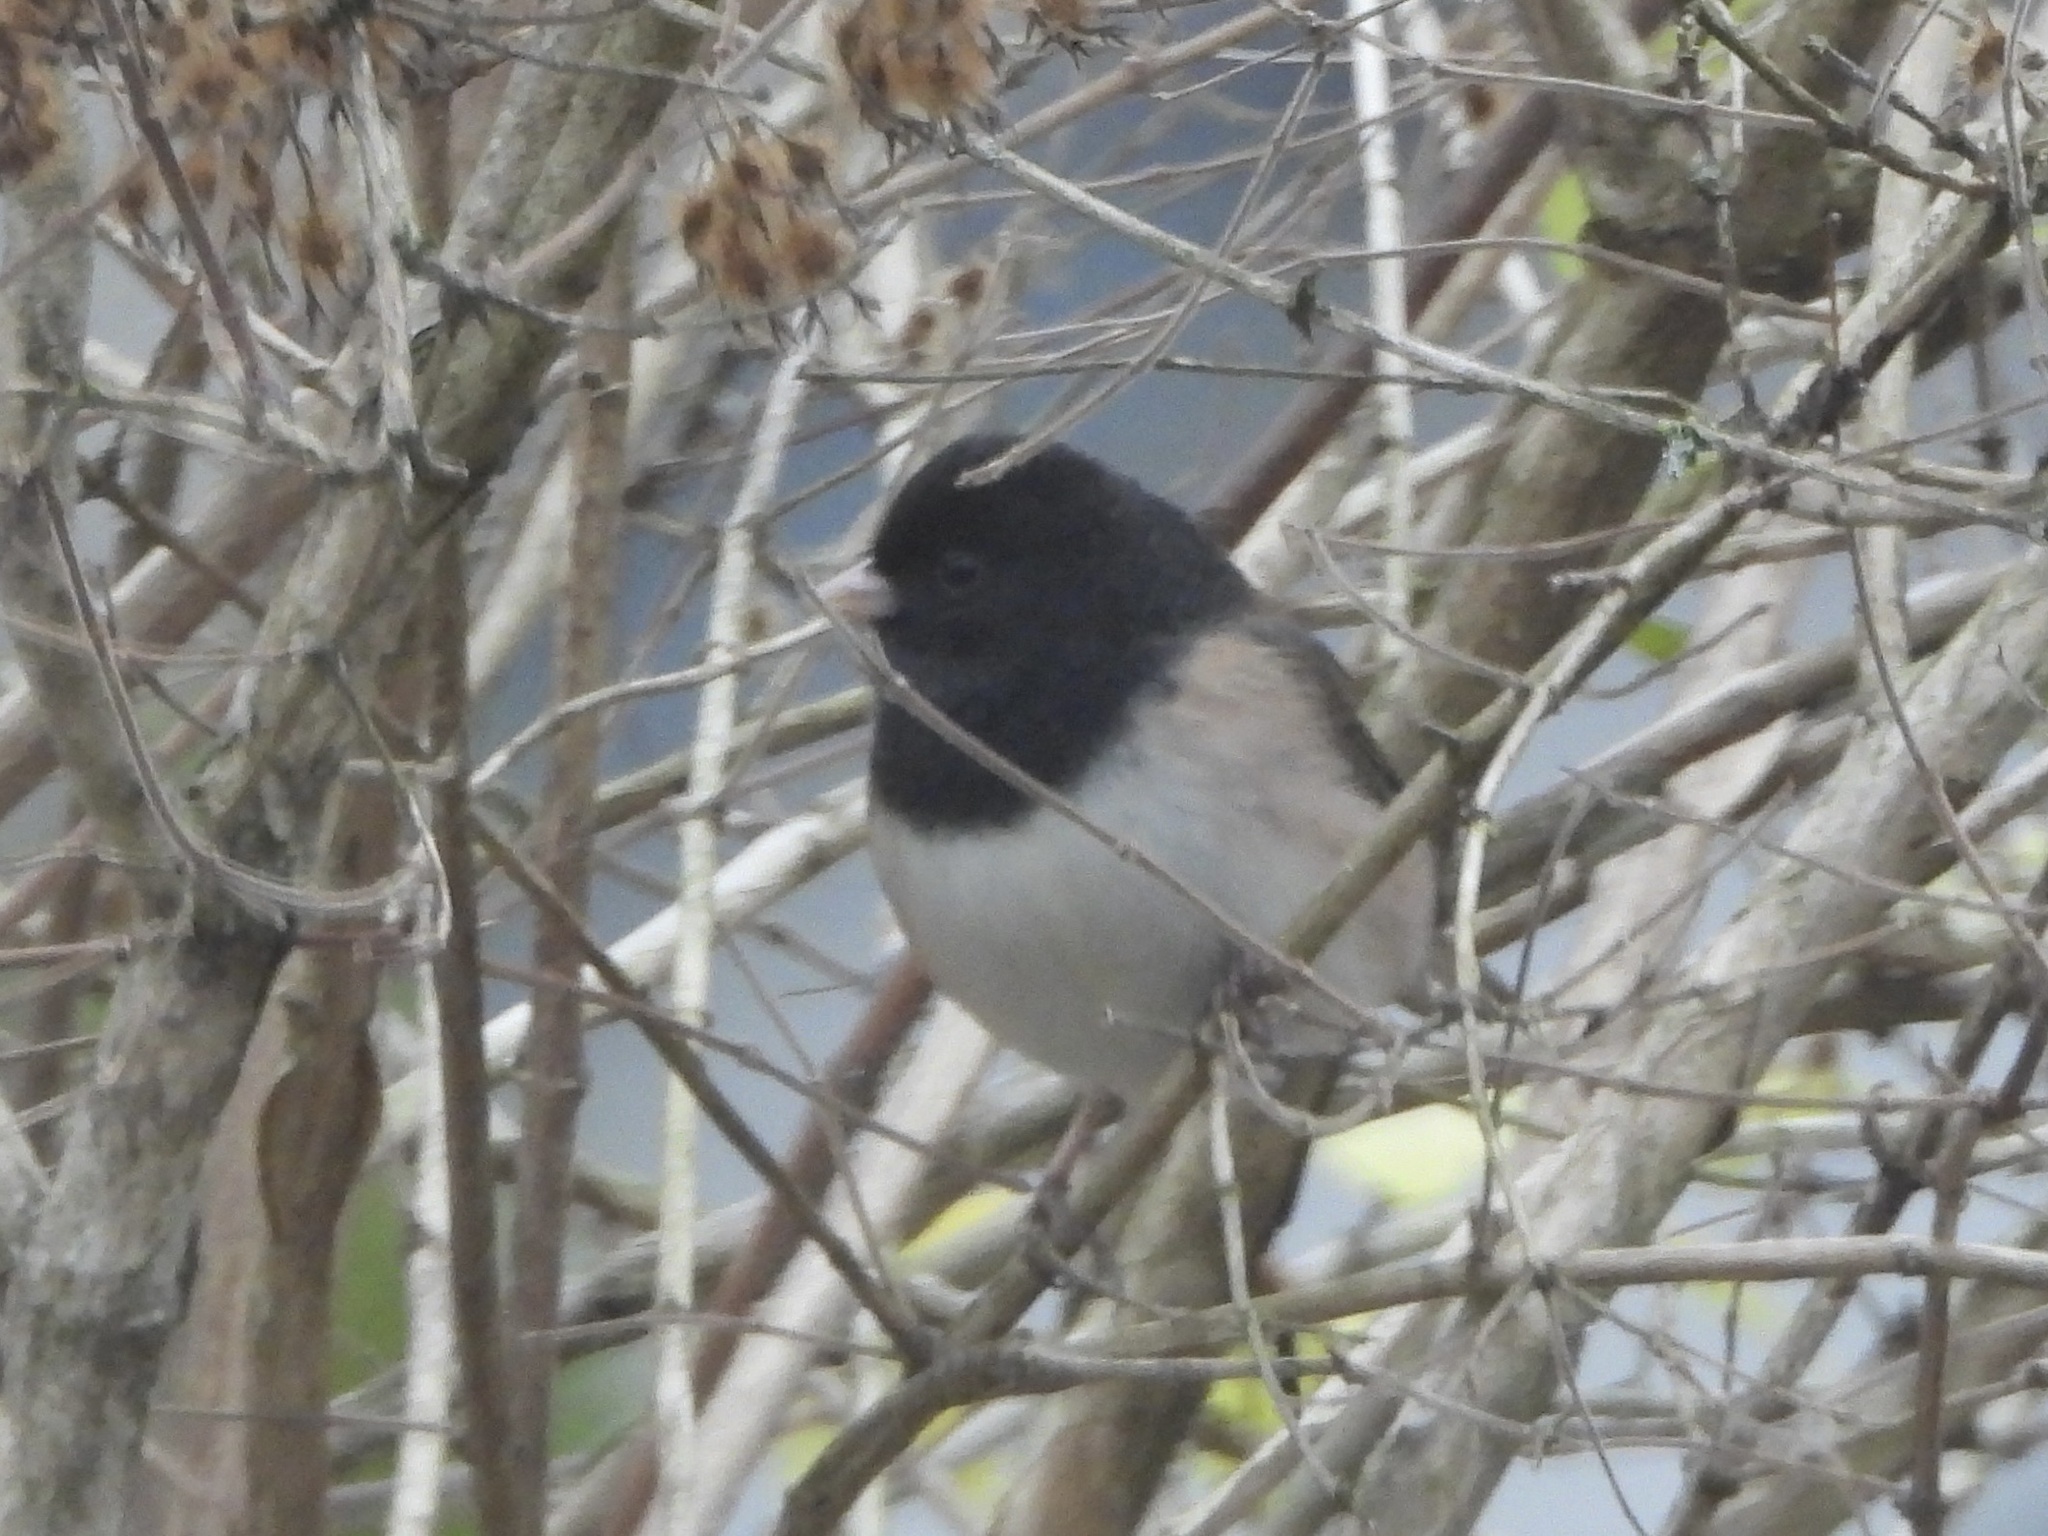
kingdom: Animalia
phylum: Chordata
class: Aves
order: Passeriformes
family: Passerellidae
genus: Junco
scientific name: Junco hyemalis
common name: Dark-eyed junco
